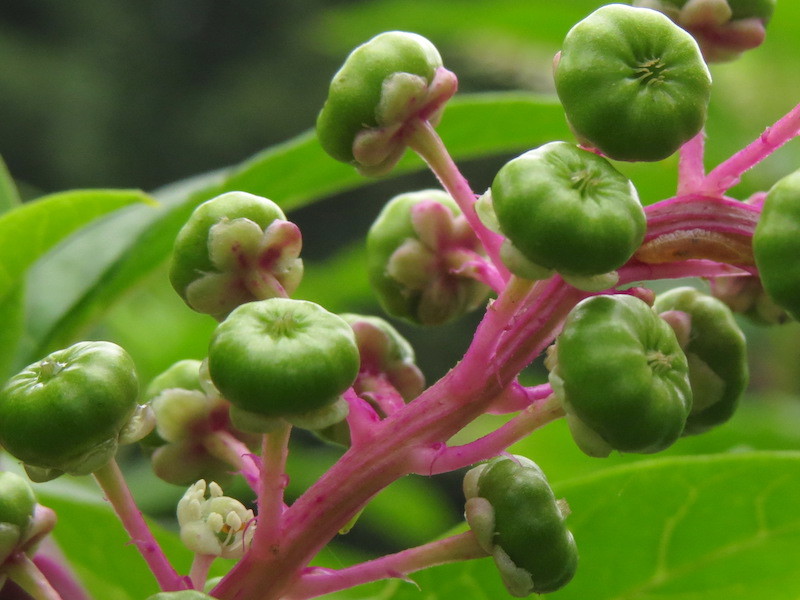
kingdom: Plantae
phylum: Tracheophyta
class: Magnoliopsida
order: Caryophyllales
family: Phytolaccaceae
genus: Phytolacca
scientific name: Phytolacca americana
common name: American pokeweed
